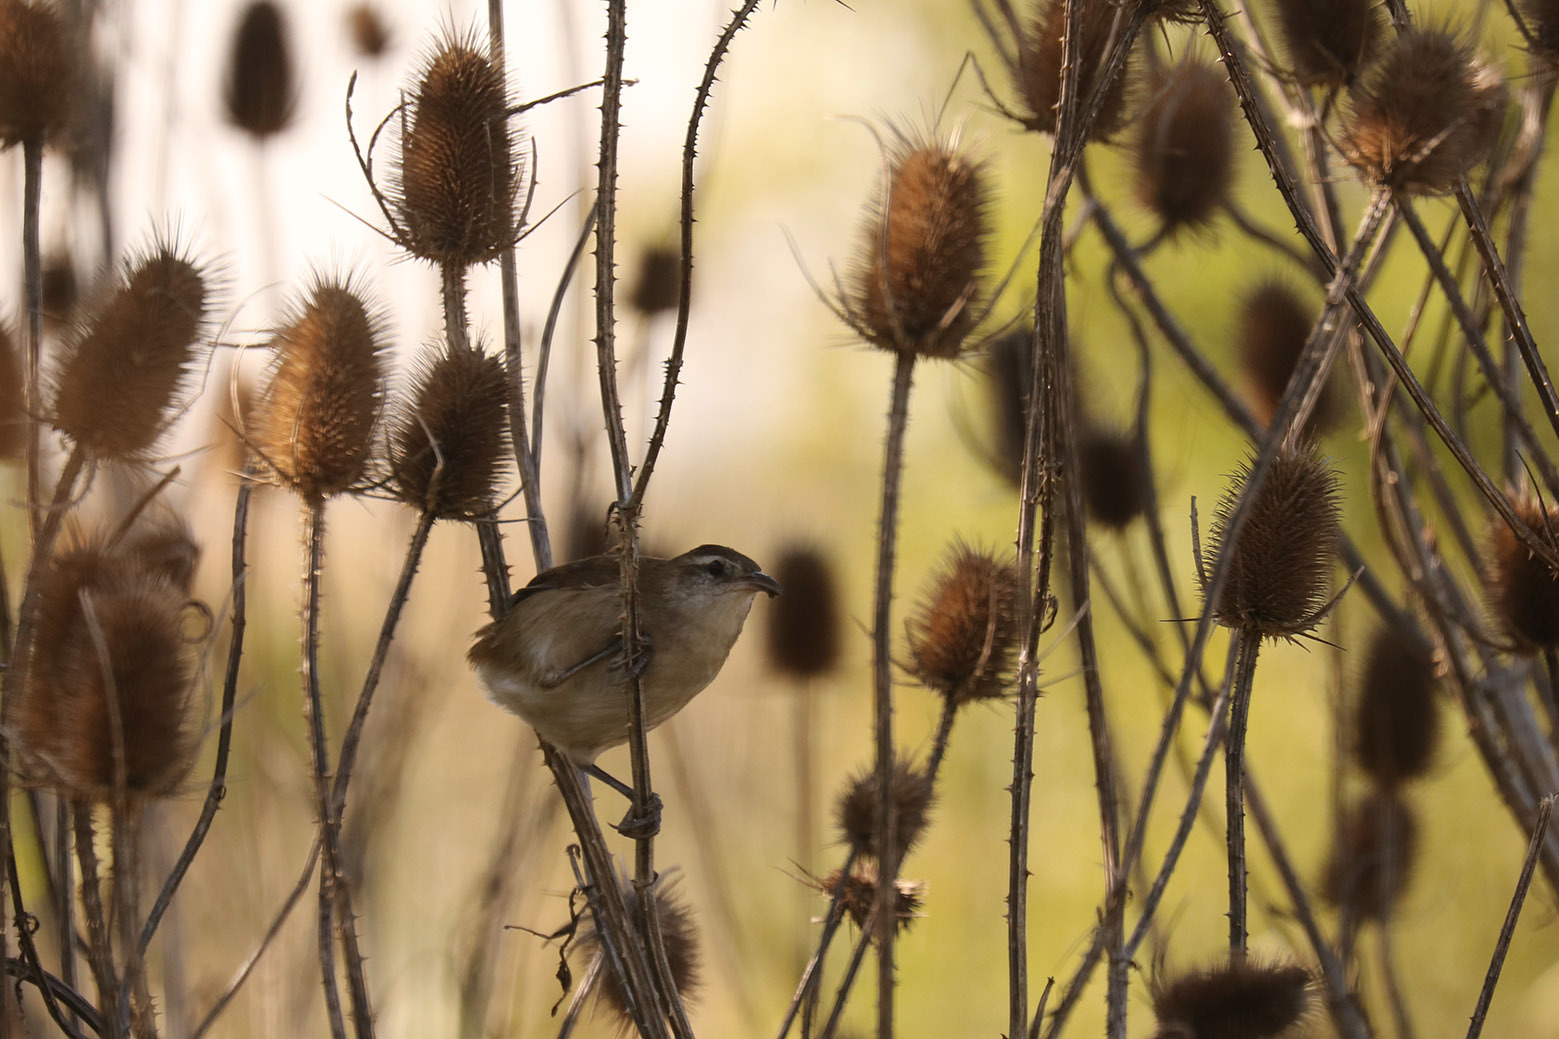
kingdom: Animalia
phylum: Chordata
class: Aves
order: Passeriformes
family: Furnariidae
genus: Limnornis
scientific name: Limnornis curvirostris
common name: Curve-billed reedhaunter
